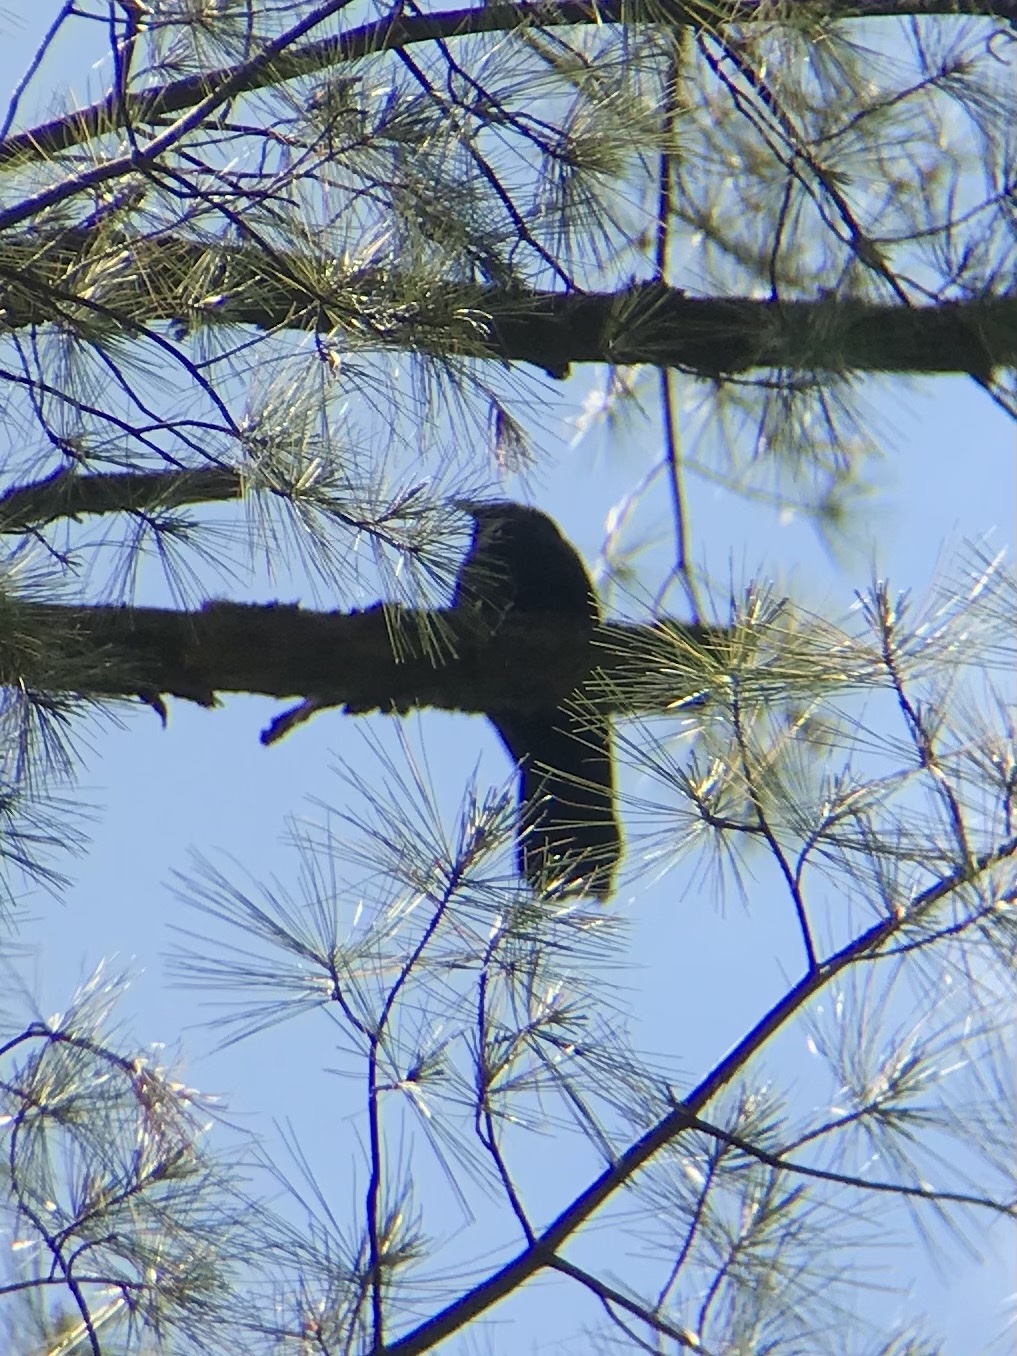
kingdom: Animalia
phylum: Chordata
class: Aves
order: Passeriformes
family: Corvidae
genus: Corvus
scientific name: Corvus ossifragus
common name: Fish crow
